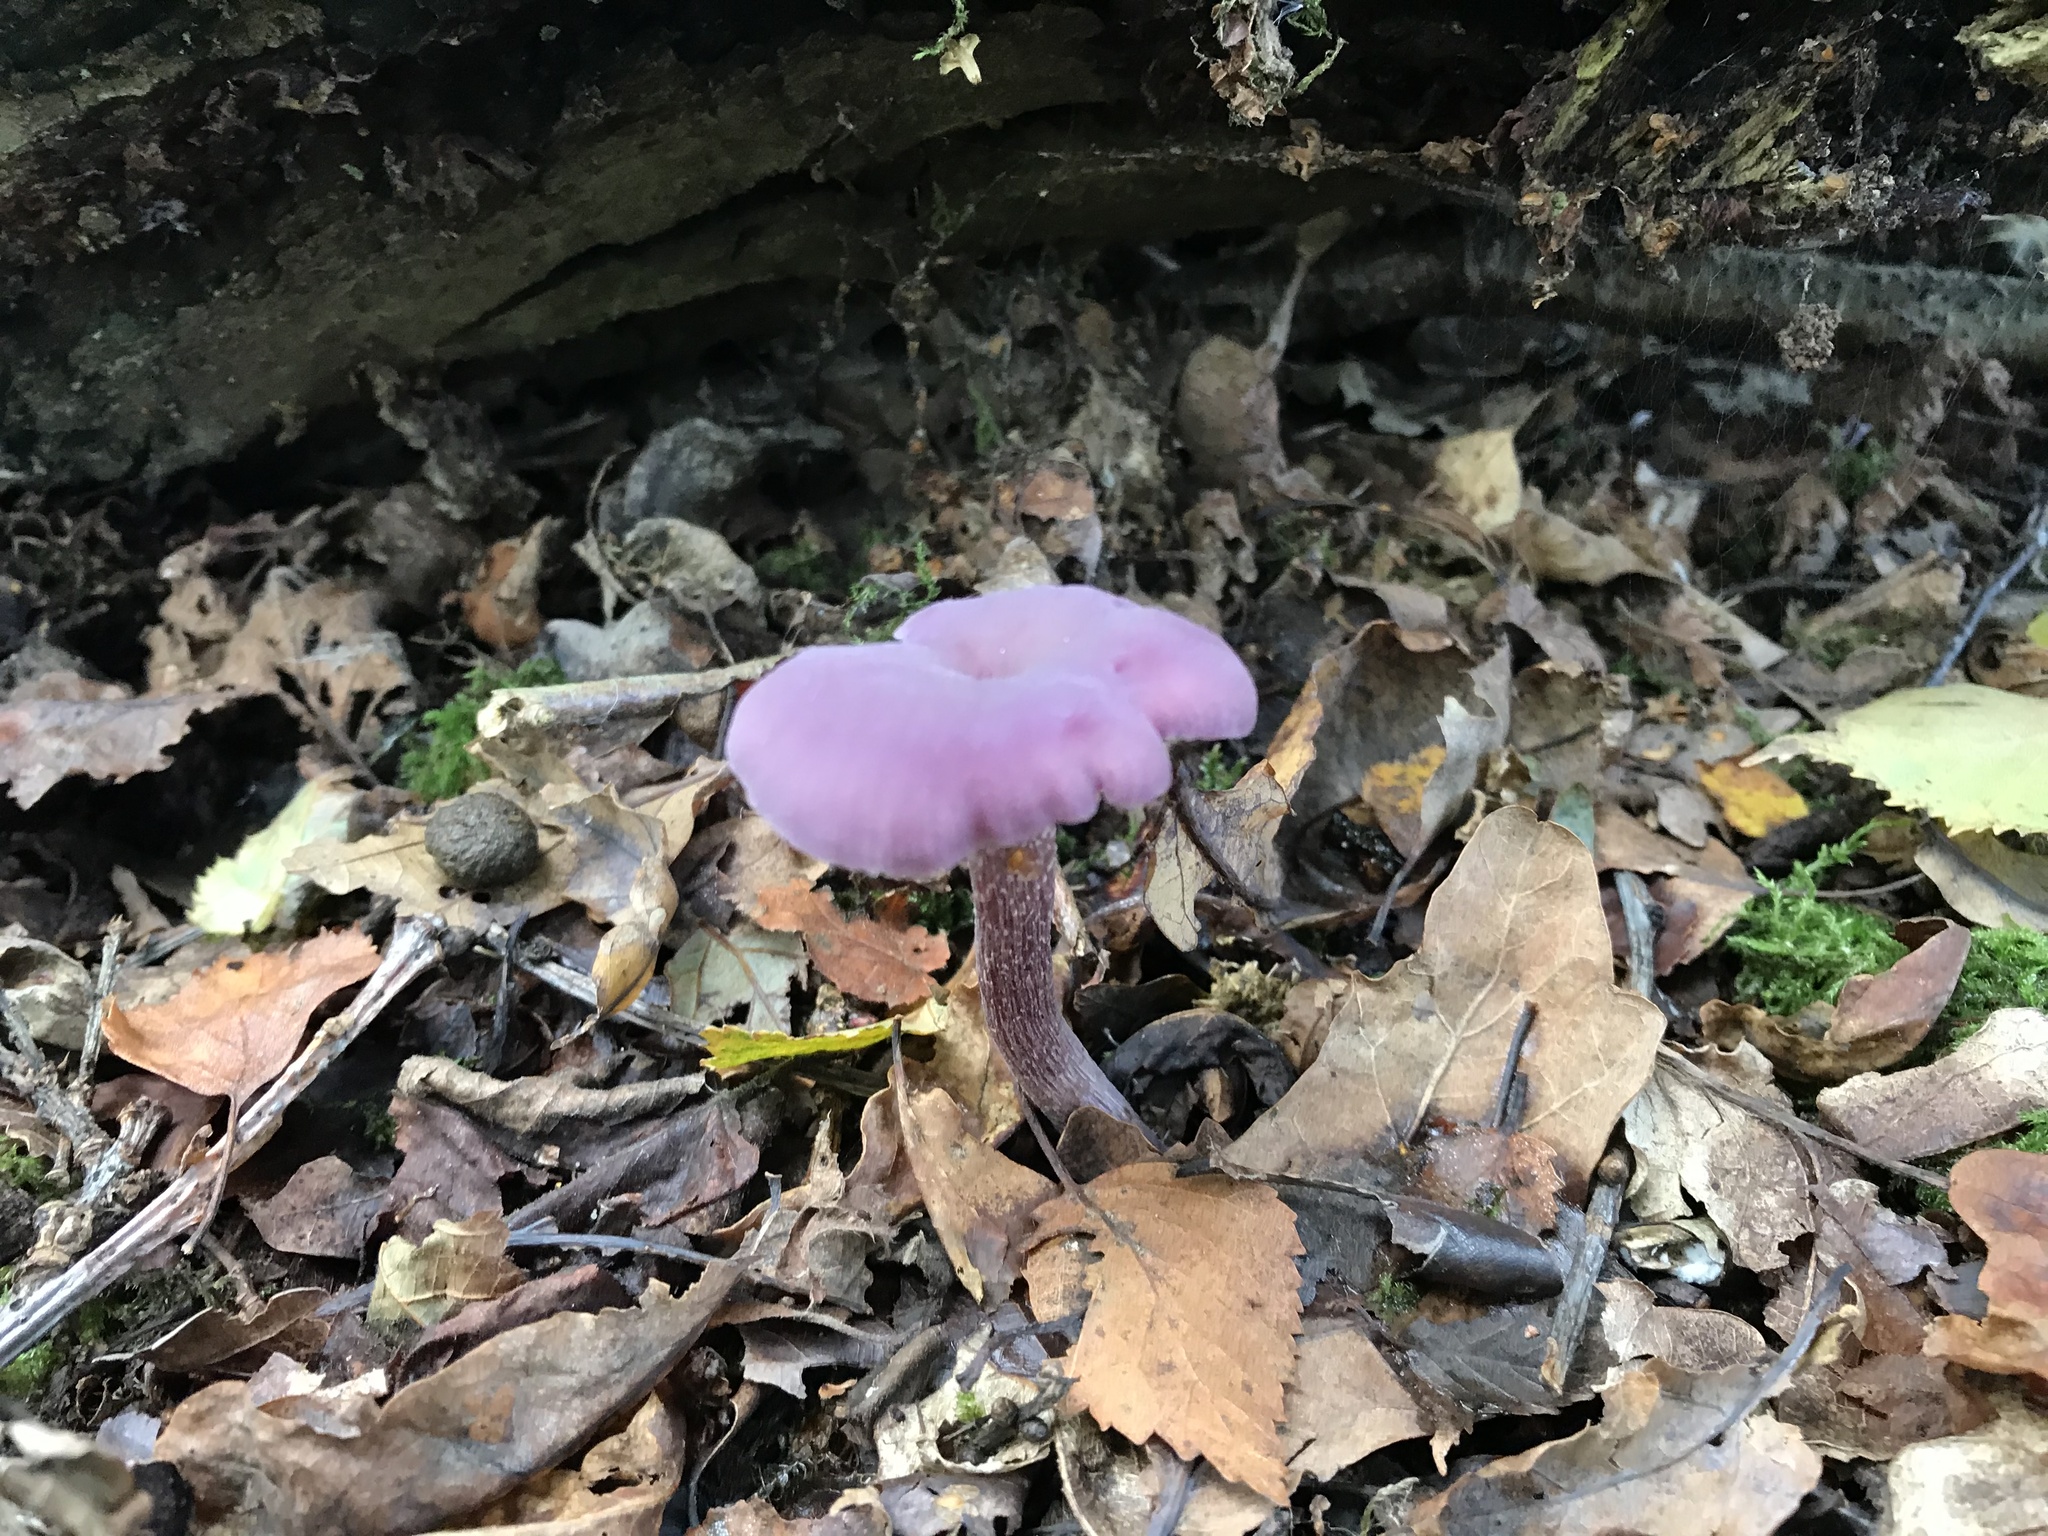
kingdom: Fungi
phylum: Basidiomycota
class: Agaricomycetes
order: Agaricales
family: Hydnangiaceae
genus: Laccaria
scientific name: Laccaria amethystina
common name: Amethyst deceiver
